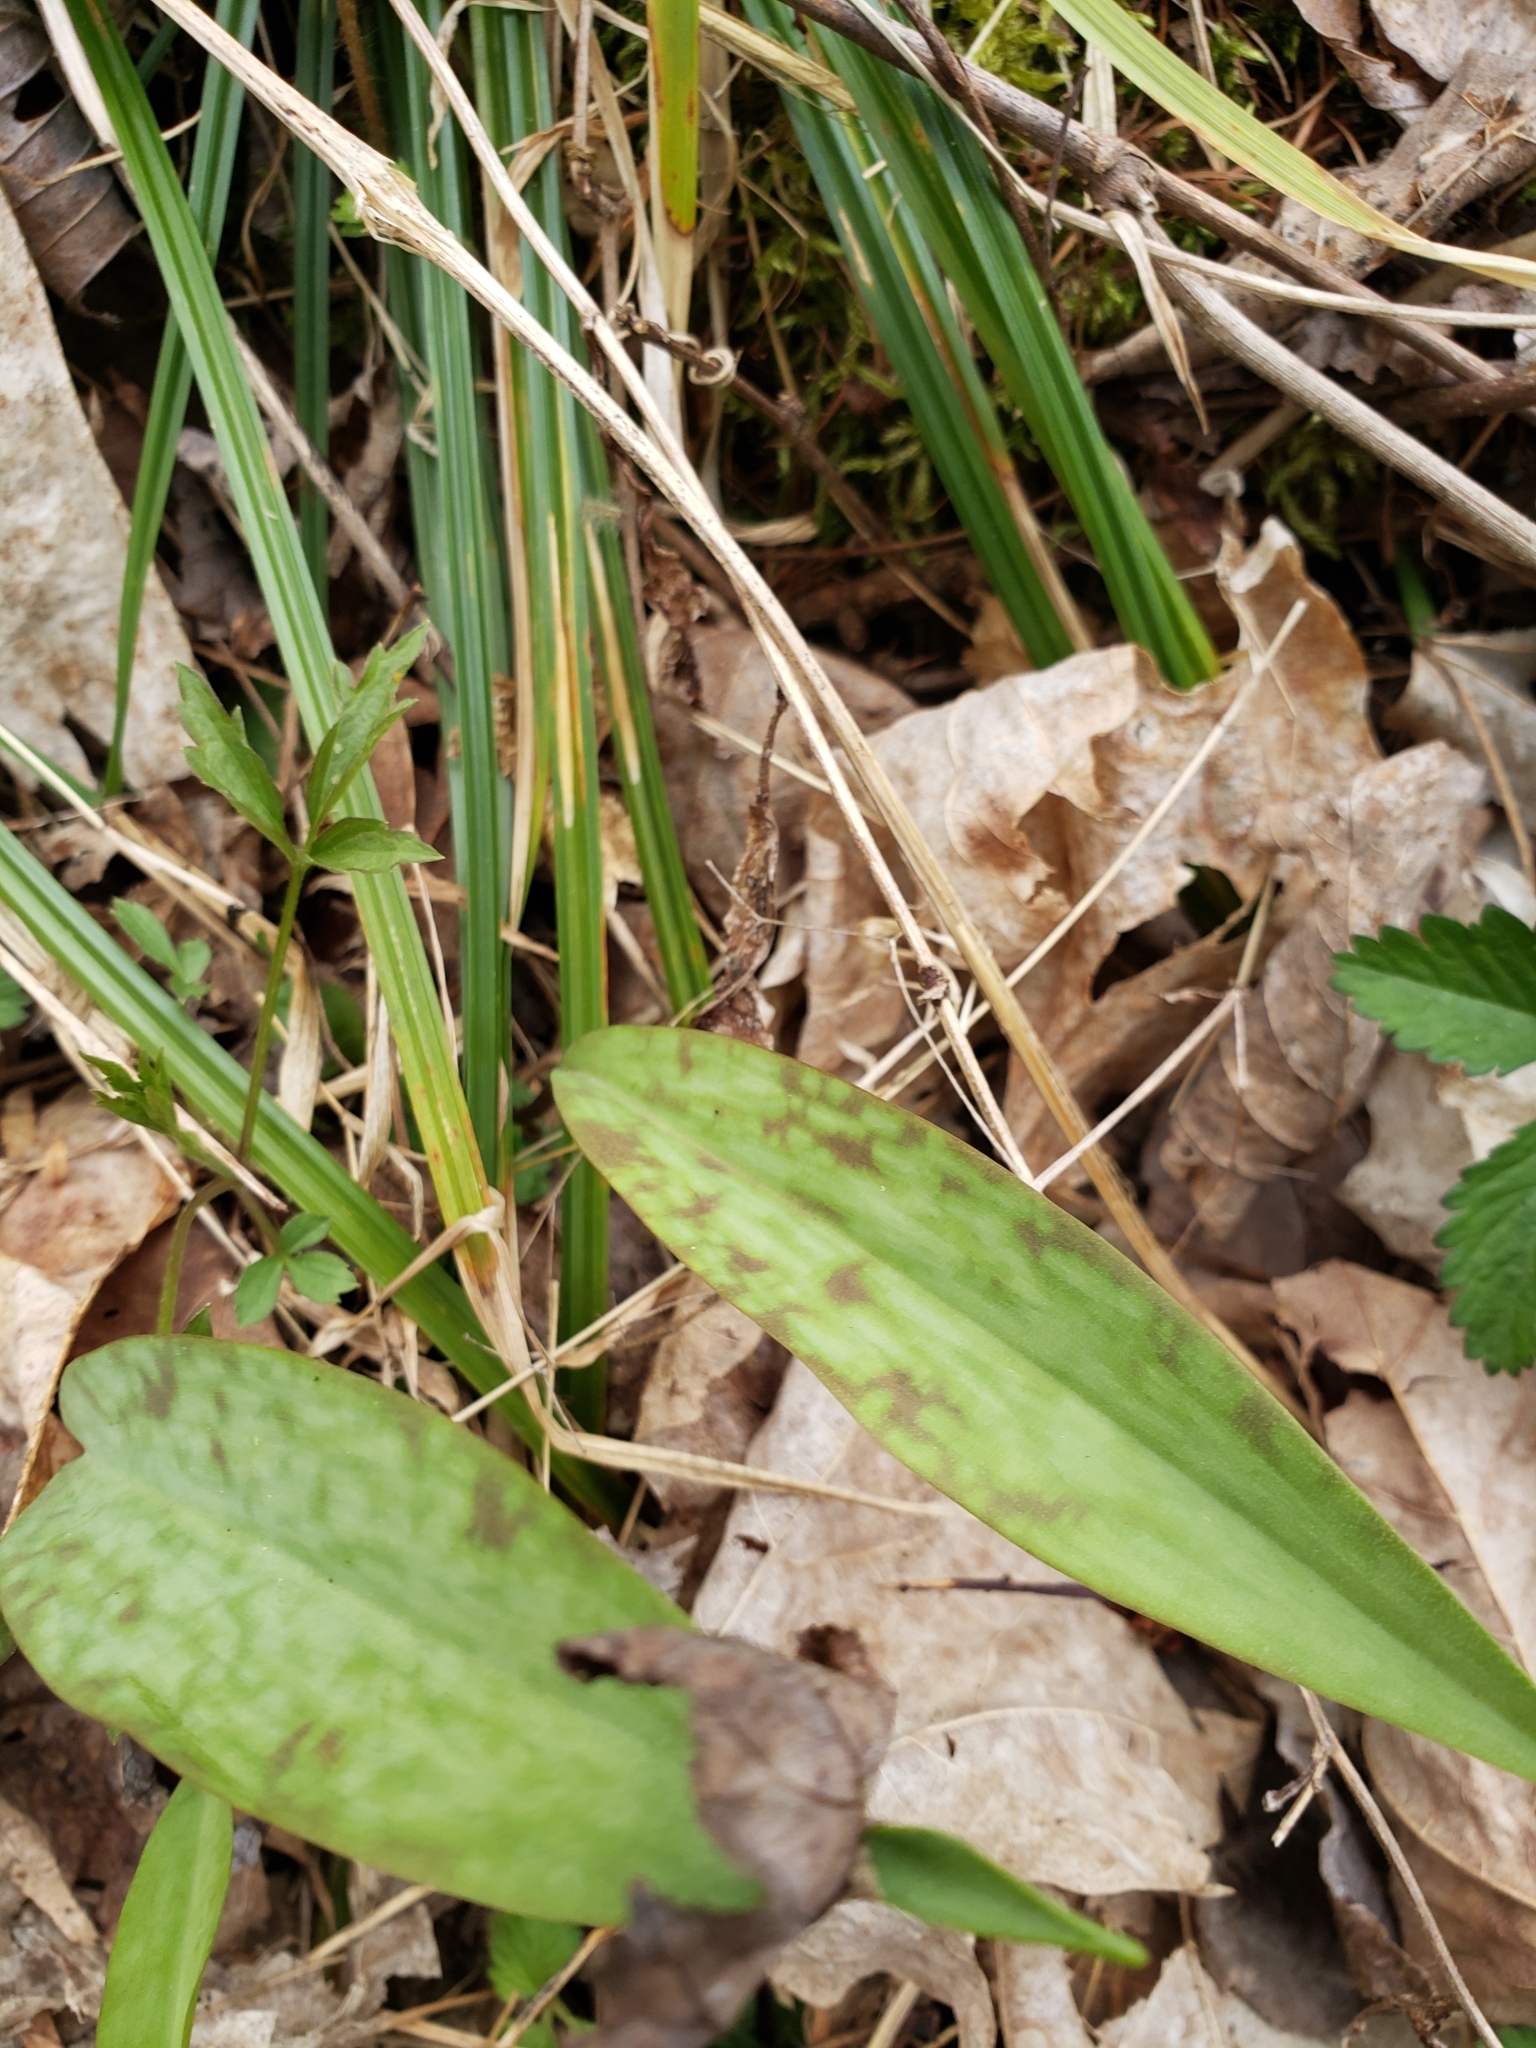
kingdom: Plantae
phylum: Tracheophyta
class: Liliopsida
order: Liliales
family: Liliaceae
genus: Erythronium
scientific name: Erythronium americanum
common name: Yellow adder's-tongue
